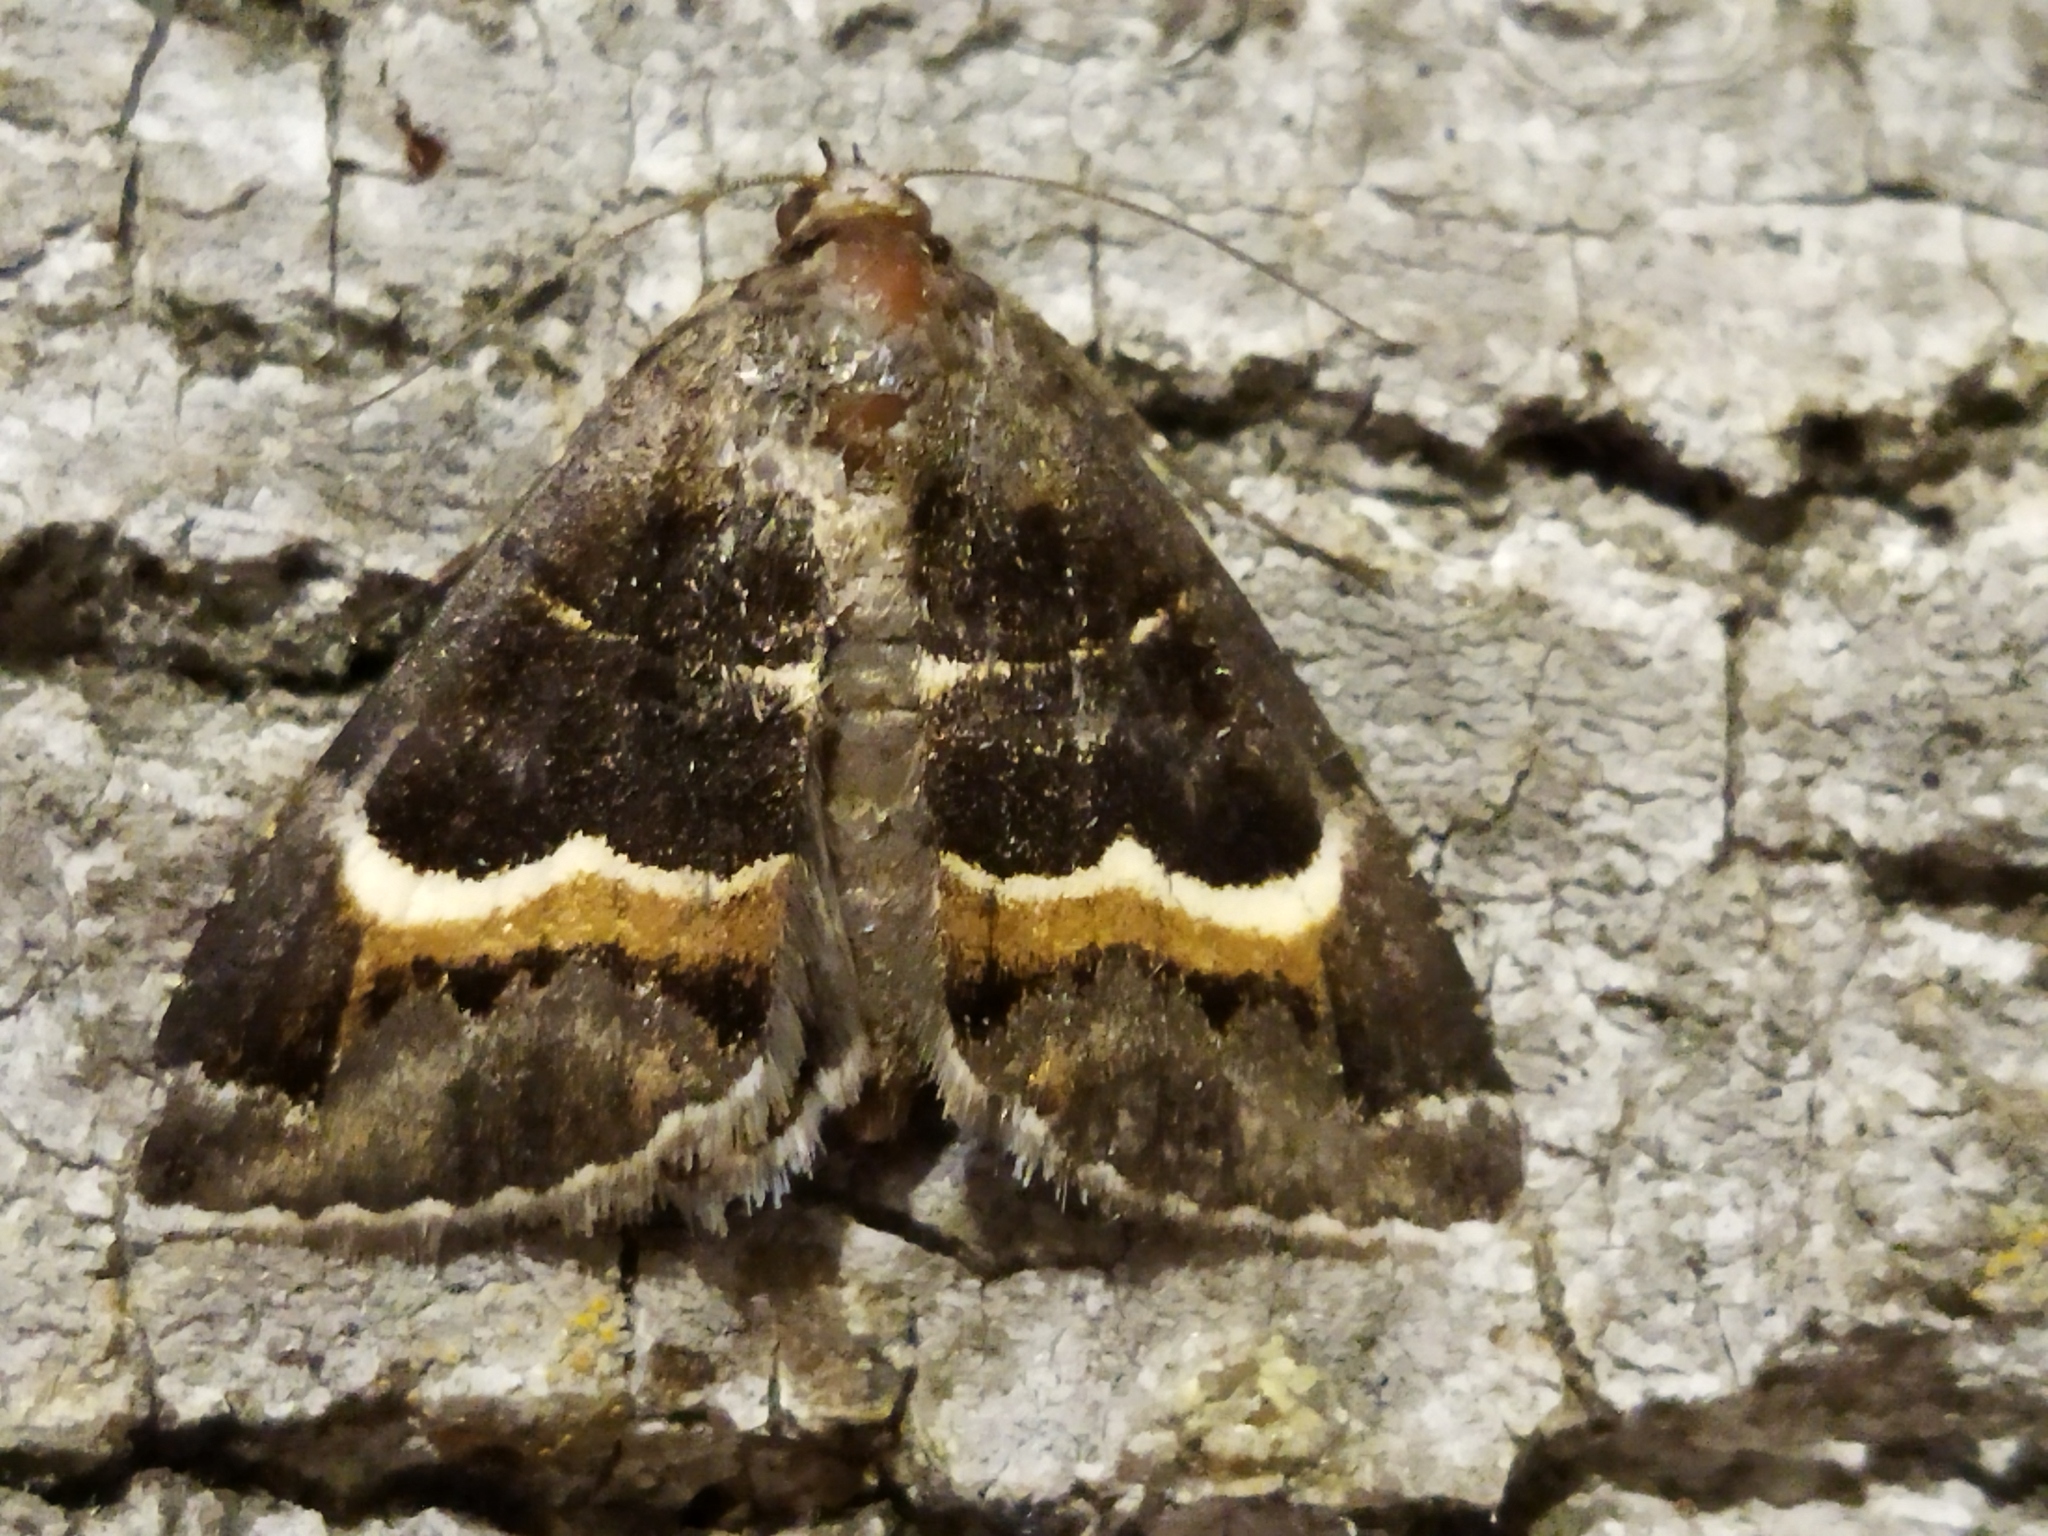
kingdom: Animalia
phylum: Arthropoda
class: Insecta
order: Lepidoptera
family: Erebidae
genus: Grammodes
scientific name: Grammodes stolida
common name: Geometrician
